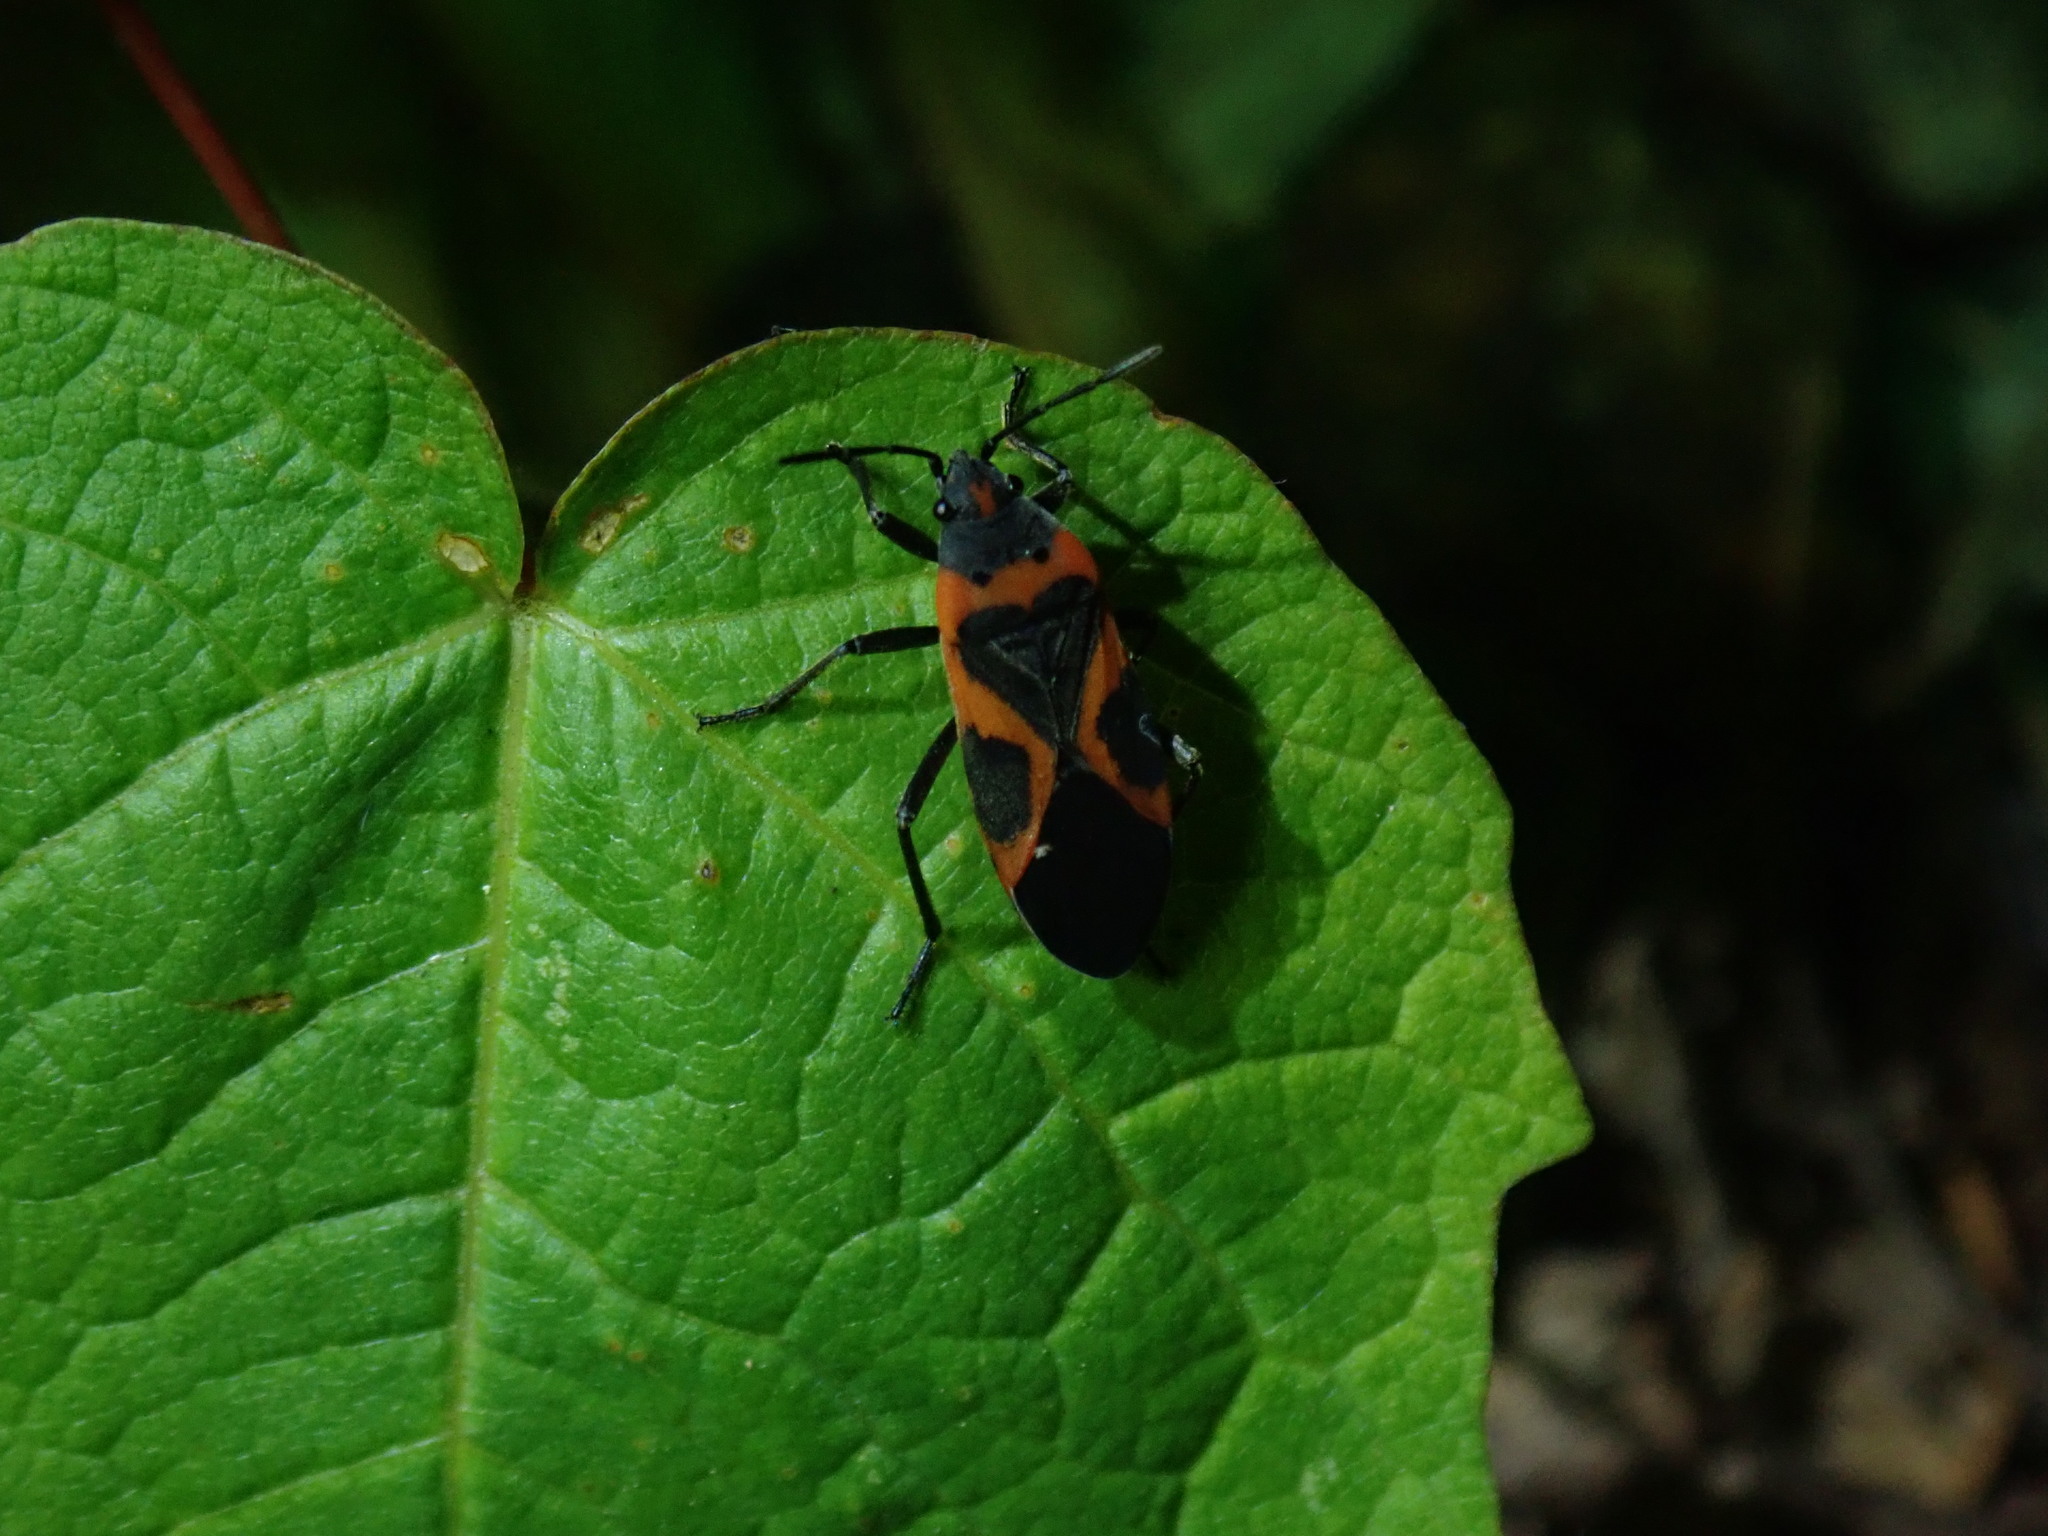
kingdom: Animalia
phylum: Arthropoda
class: Insecta
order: Hemiptera
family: Lygaeidae
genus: Lygaeus
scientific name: Lygaeus kalmii
